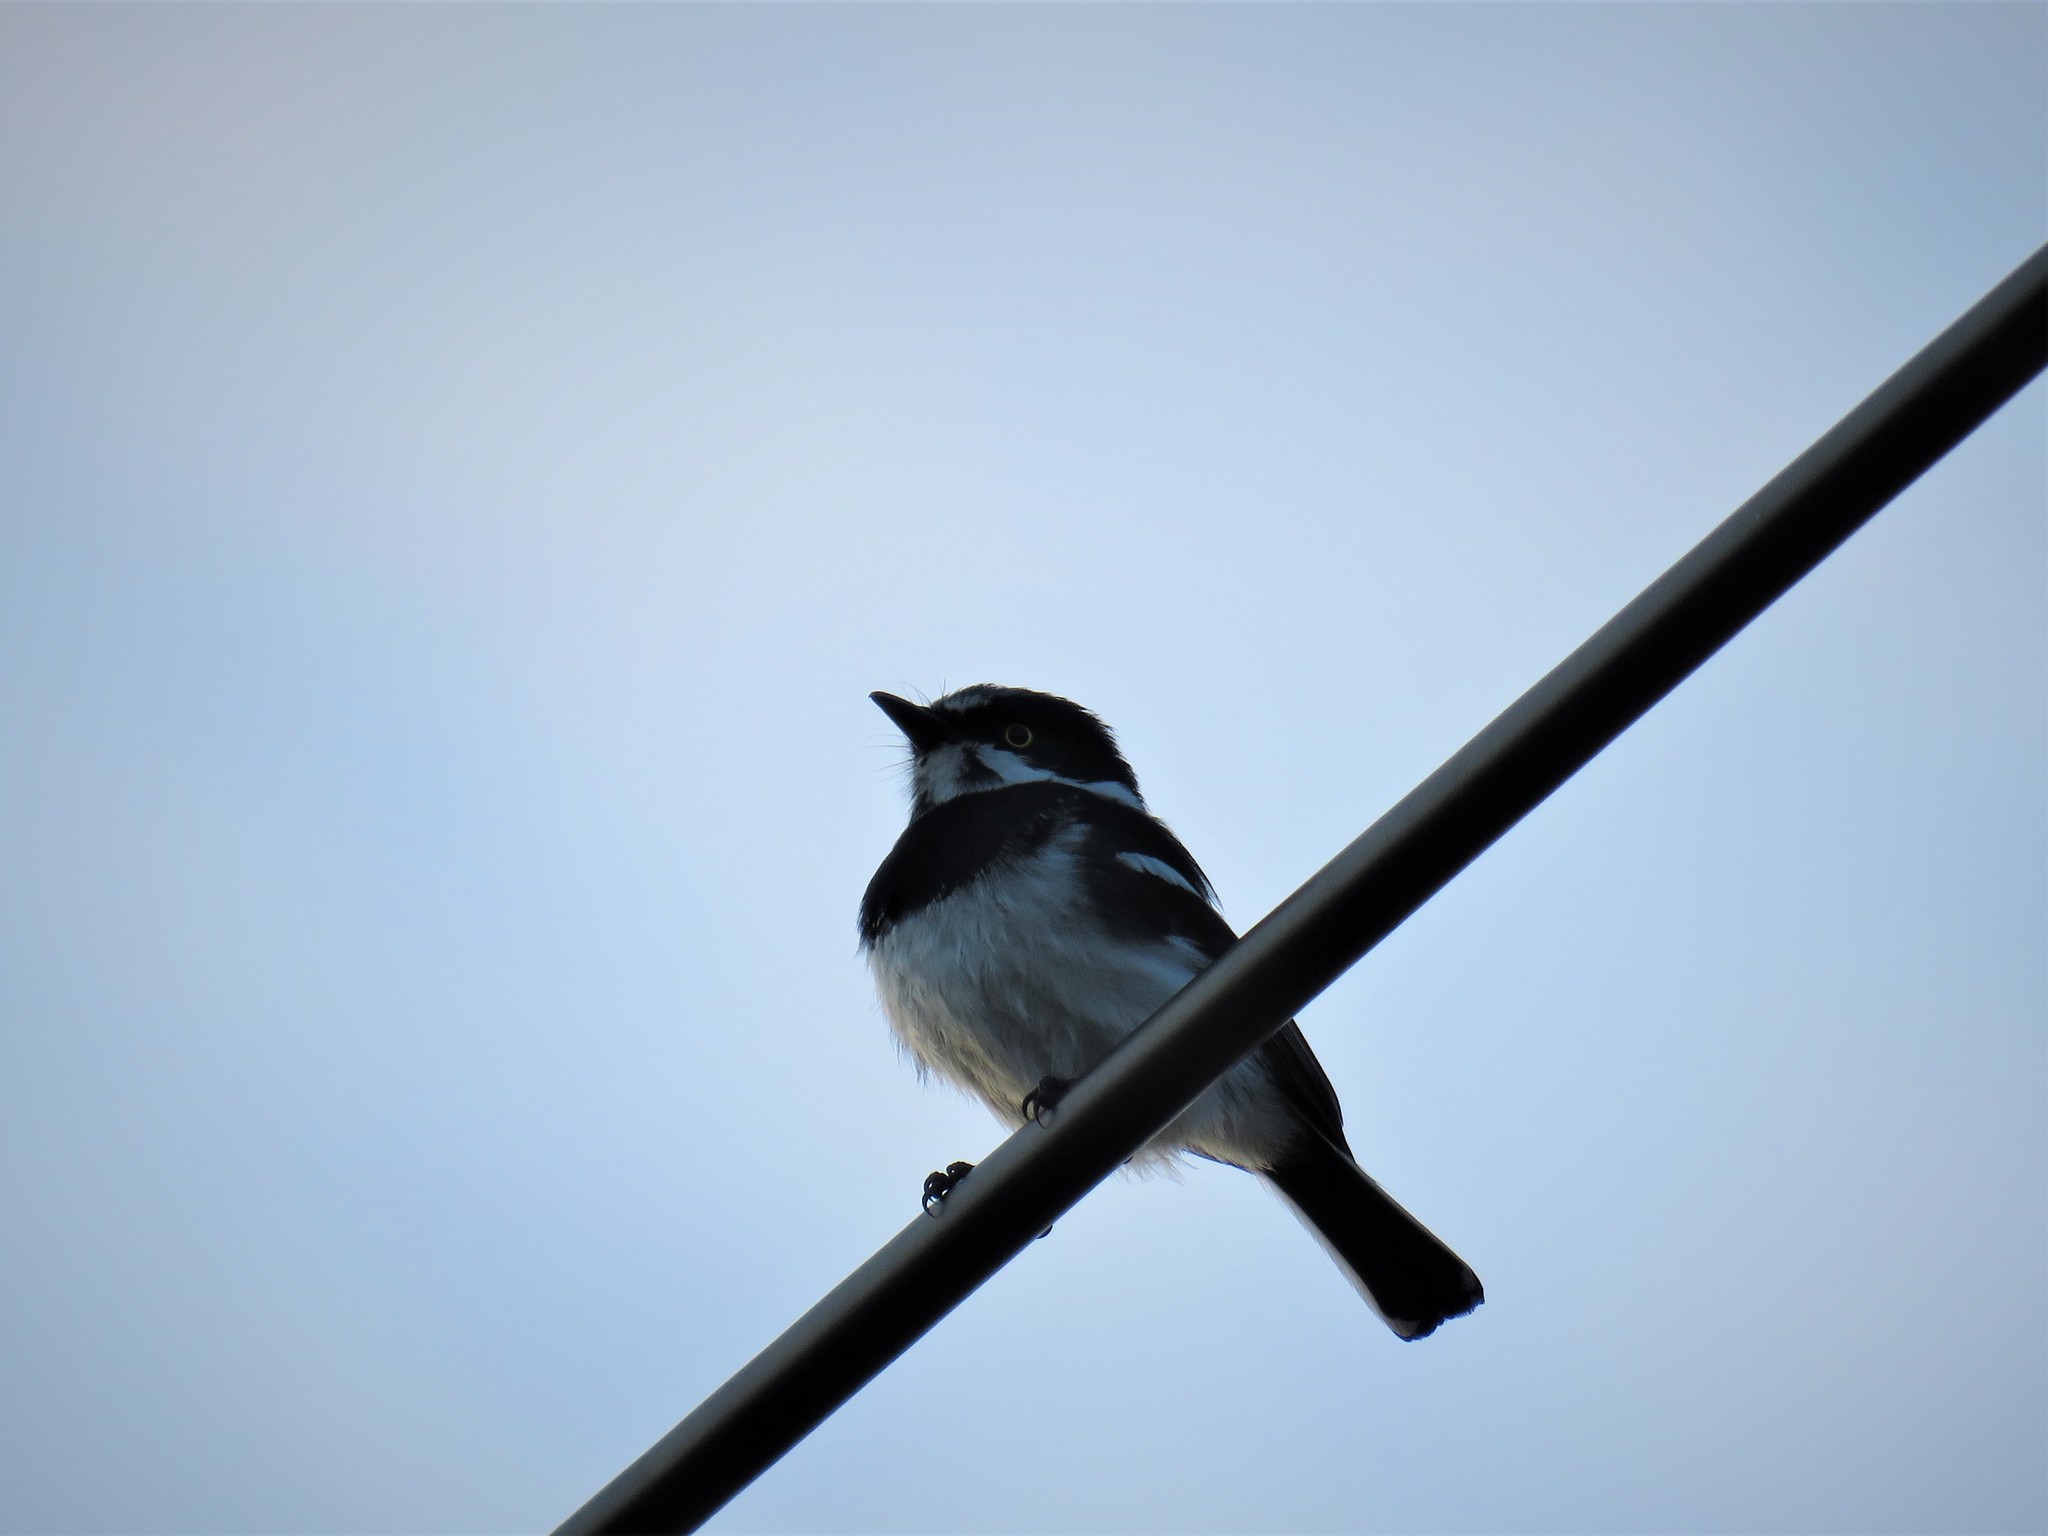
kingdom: Animalia
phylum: Chordata
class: Aves
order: Passeriformes
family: Platysteiridae
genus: Batis
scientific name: Batis molitor
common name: Chinspot batis
